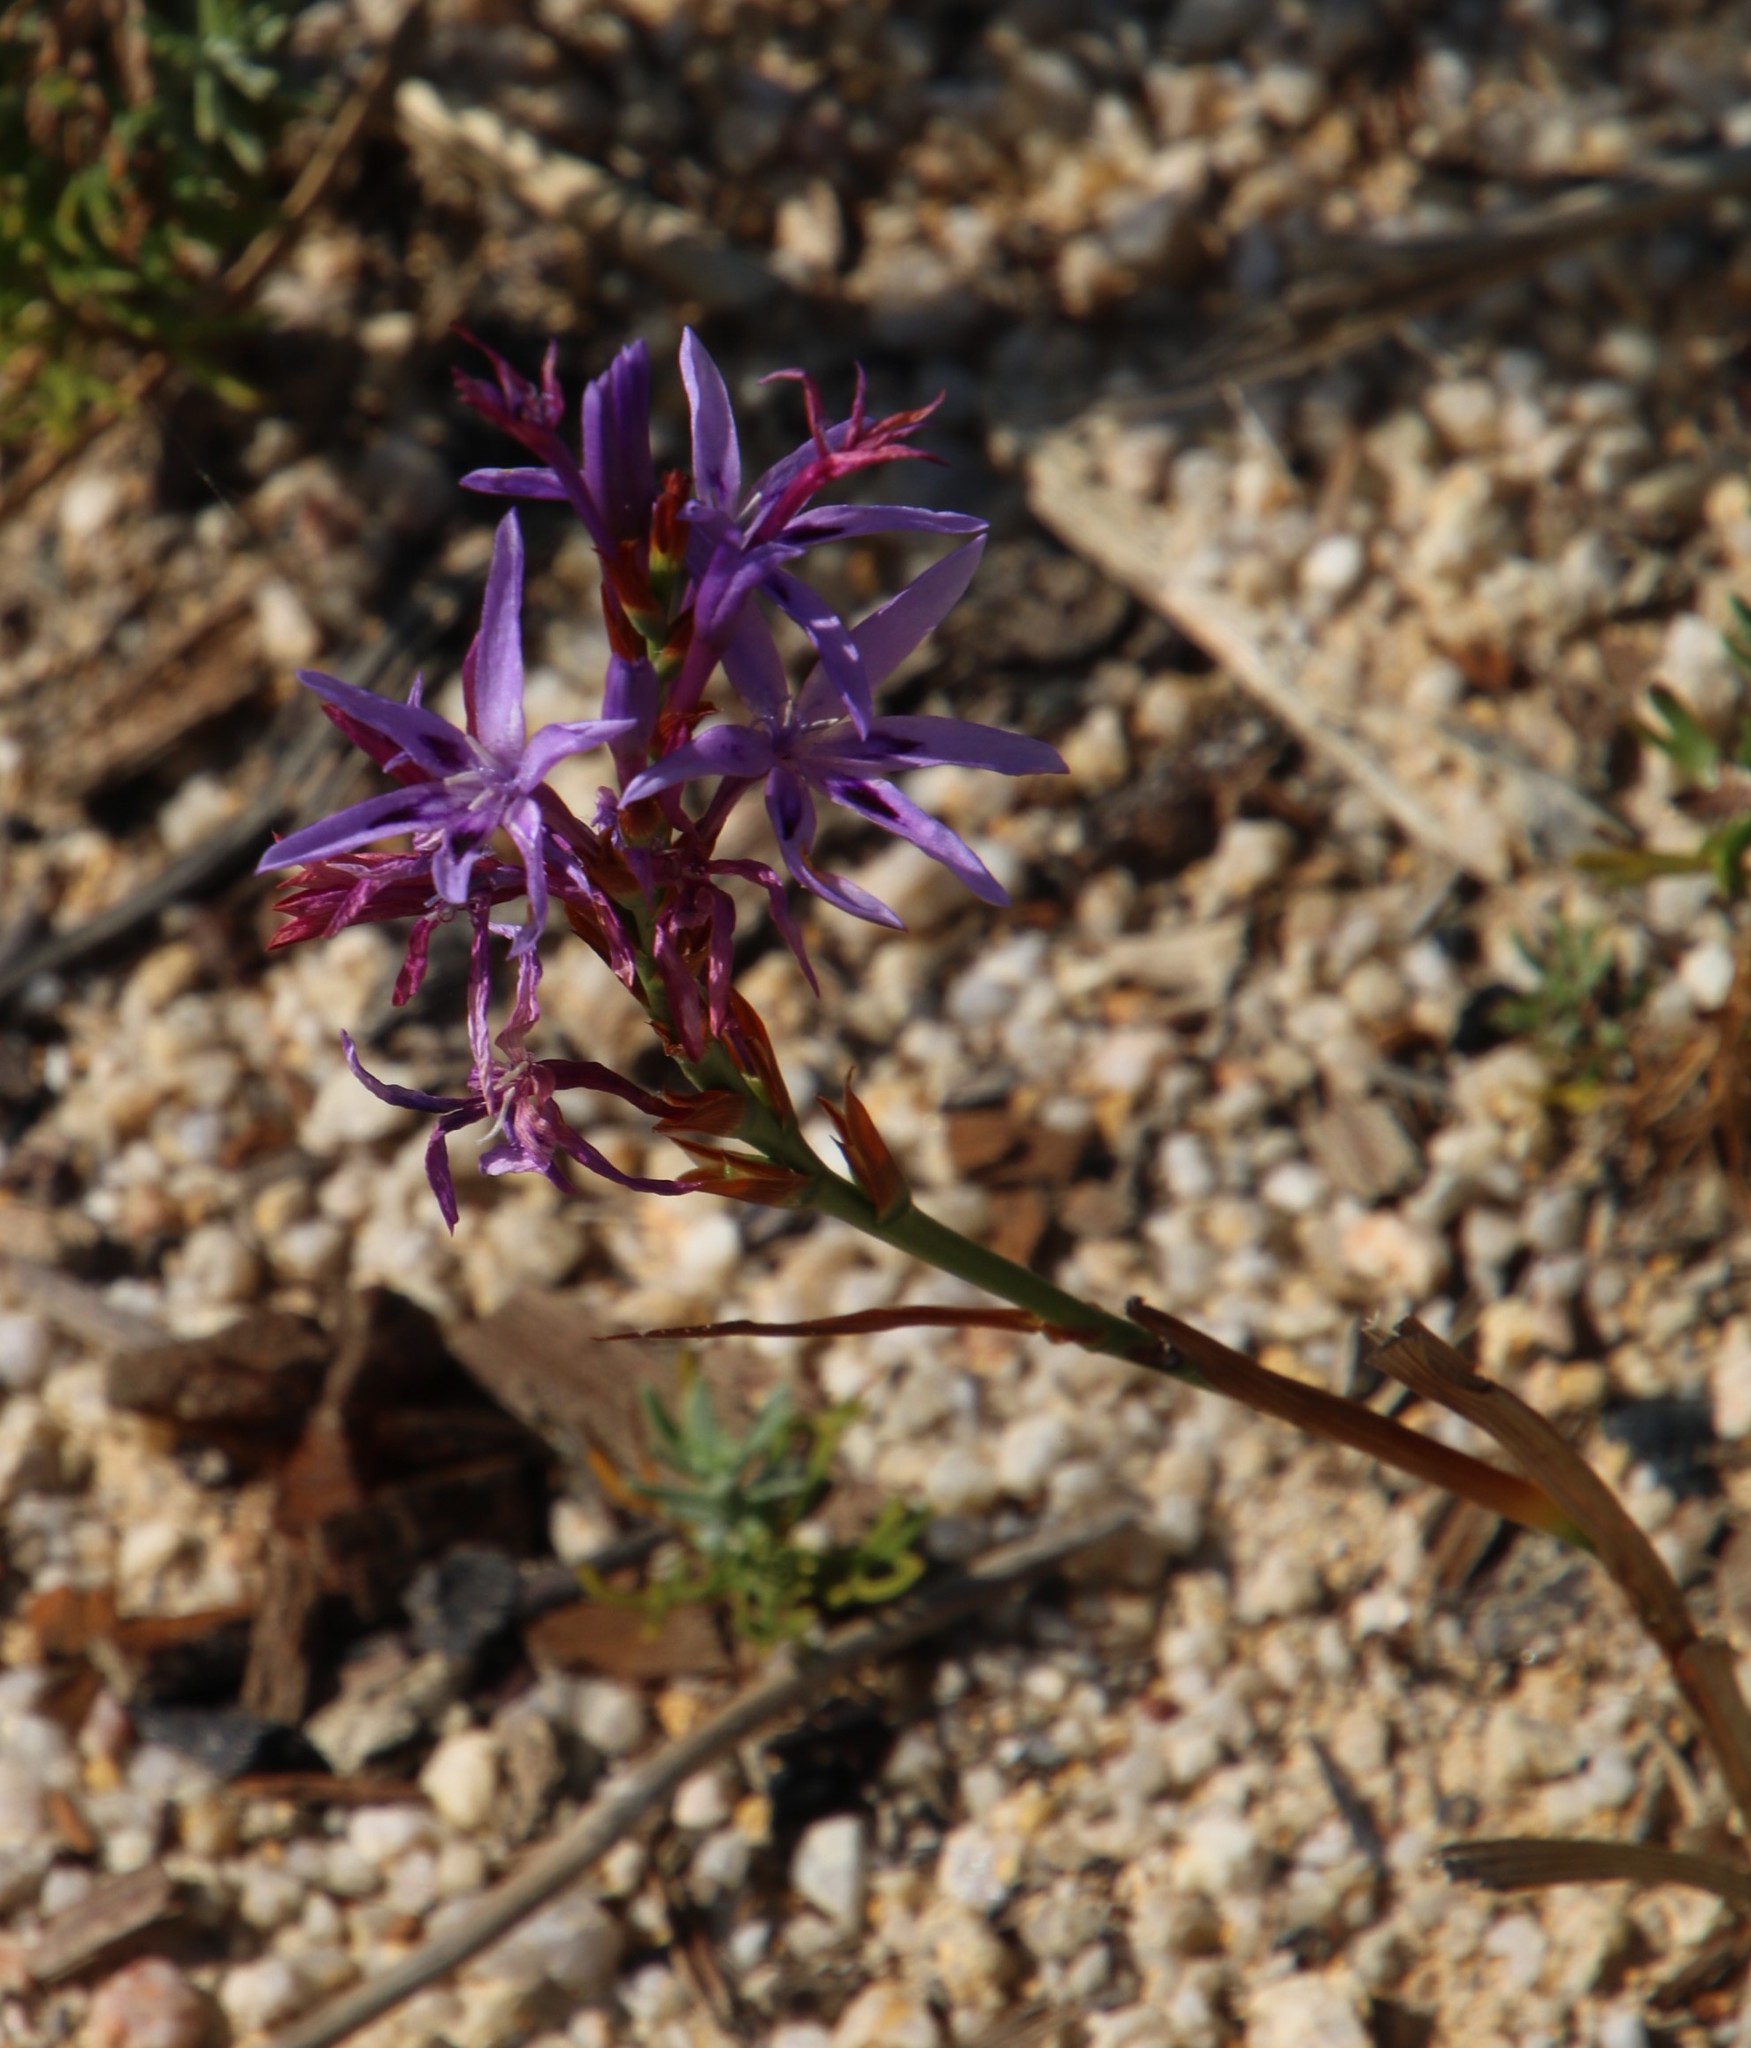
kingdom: Plantae
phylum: Tracheophyta
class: Liliopsida
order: Asparagales
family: Iridaceae
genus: Thereianthus
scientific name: Thereianthus bracteolatus
